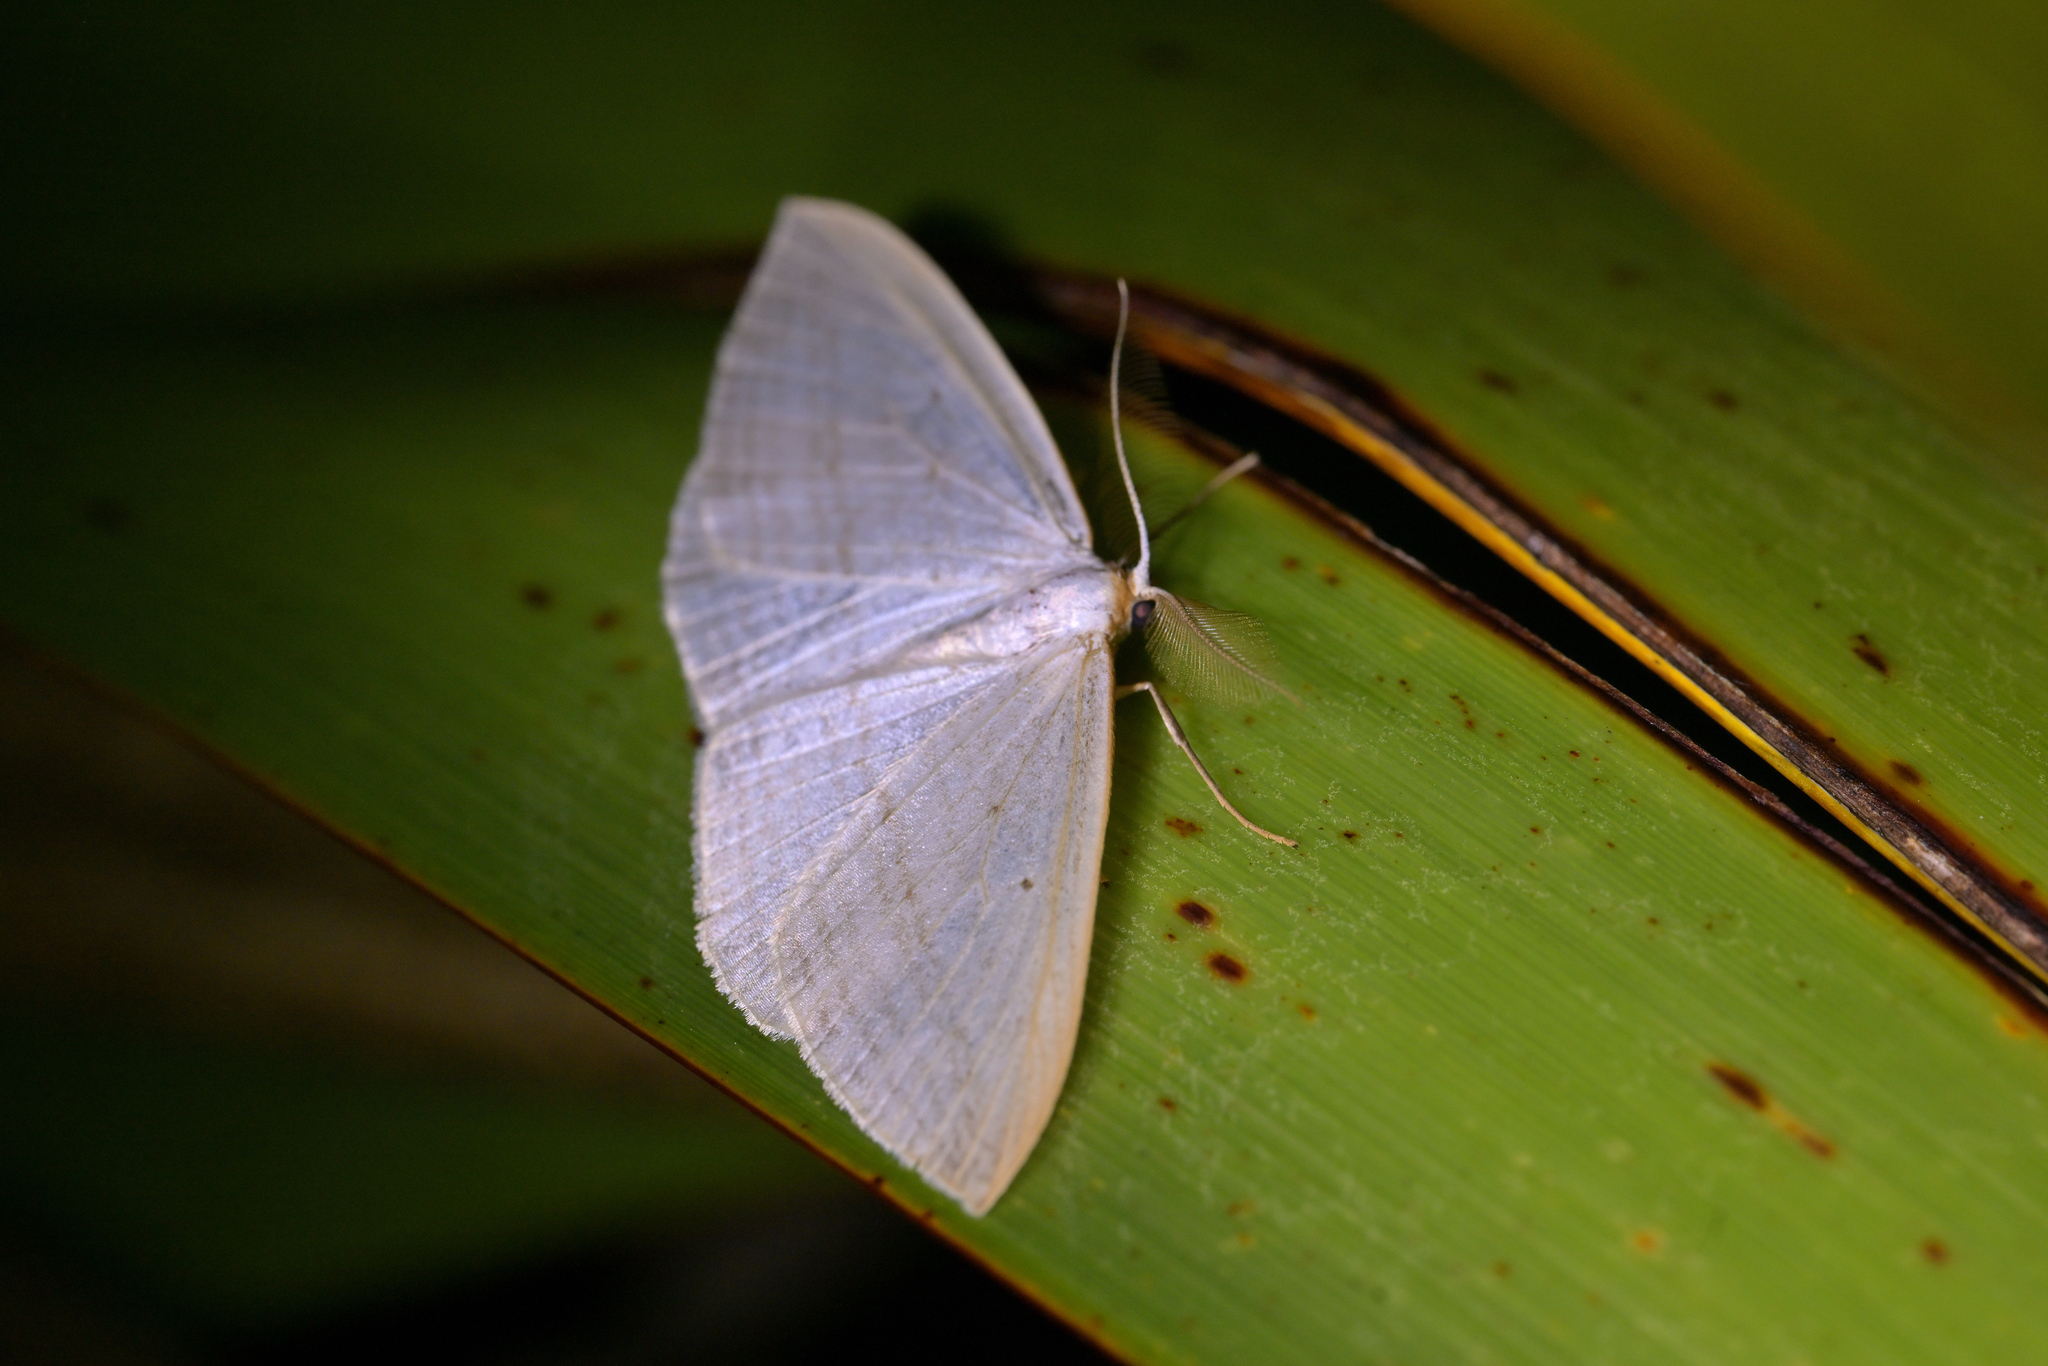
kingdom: Animalia
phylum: Arthropoda
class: Insecta
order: Lepidoptera
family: Geometridae
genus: Orthoclydon
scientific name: Orthoclydon praefectata
